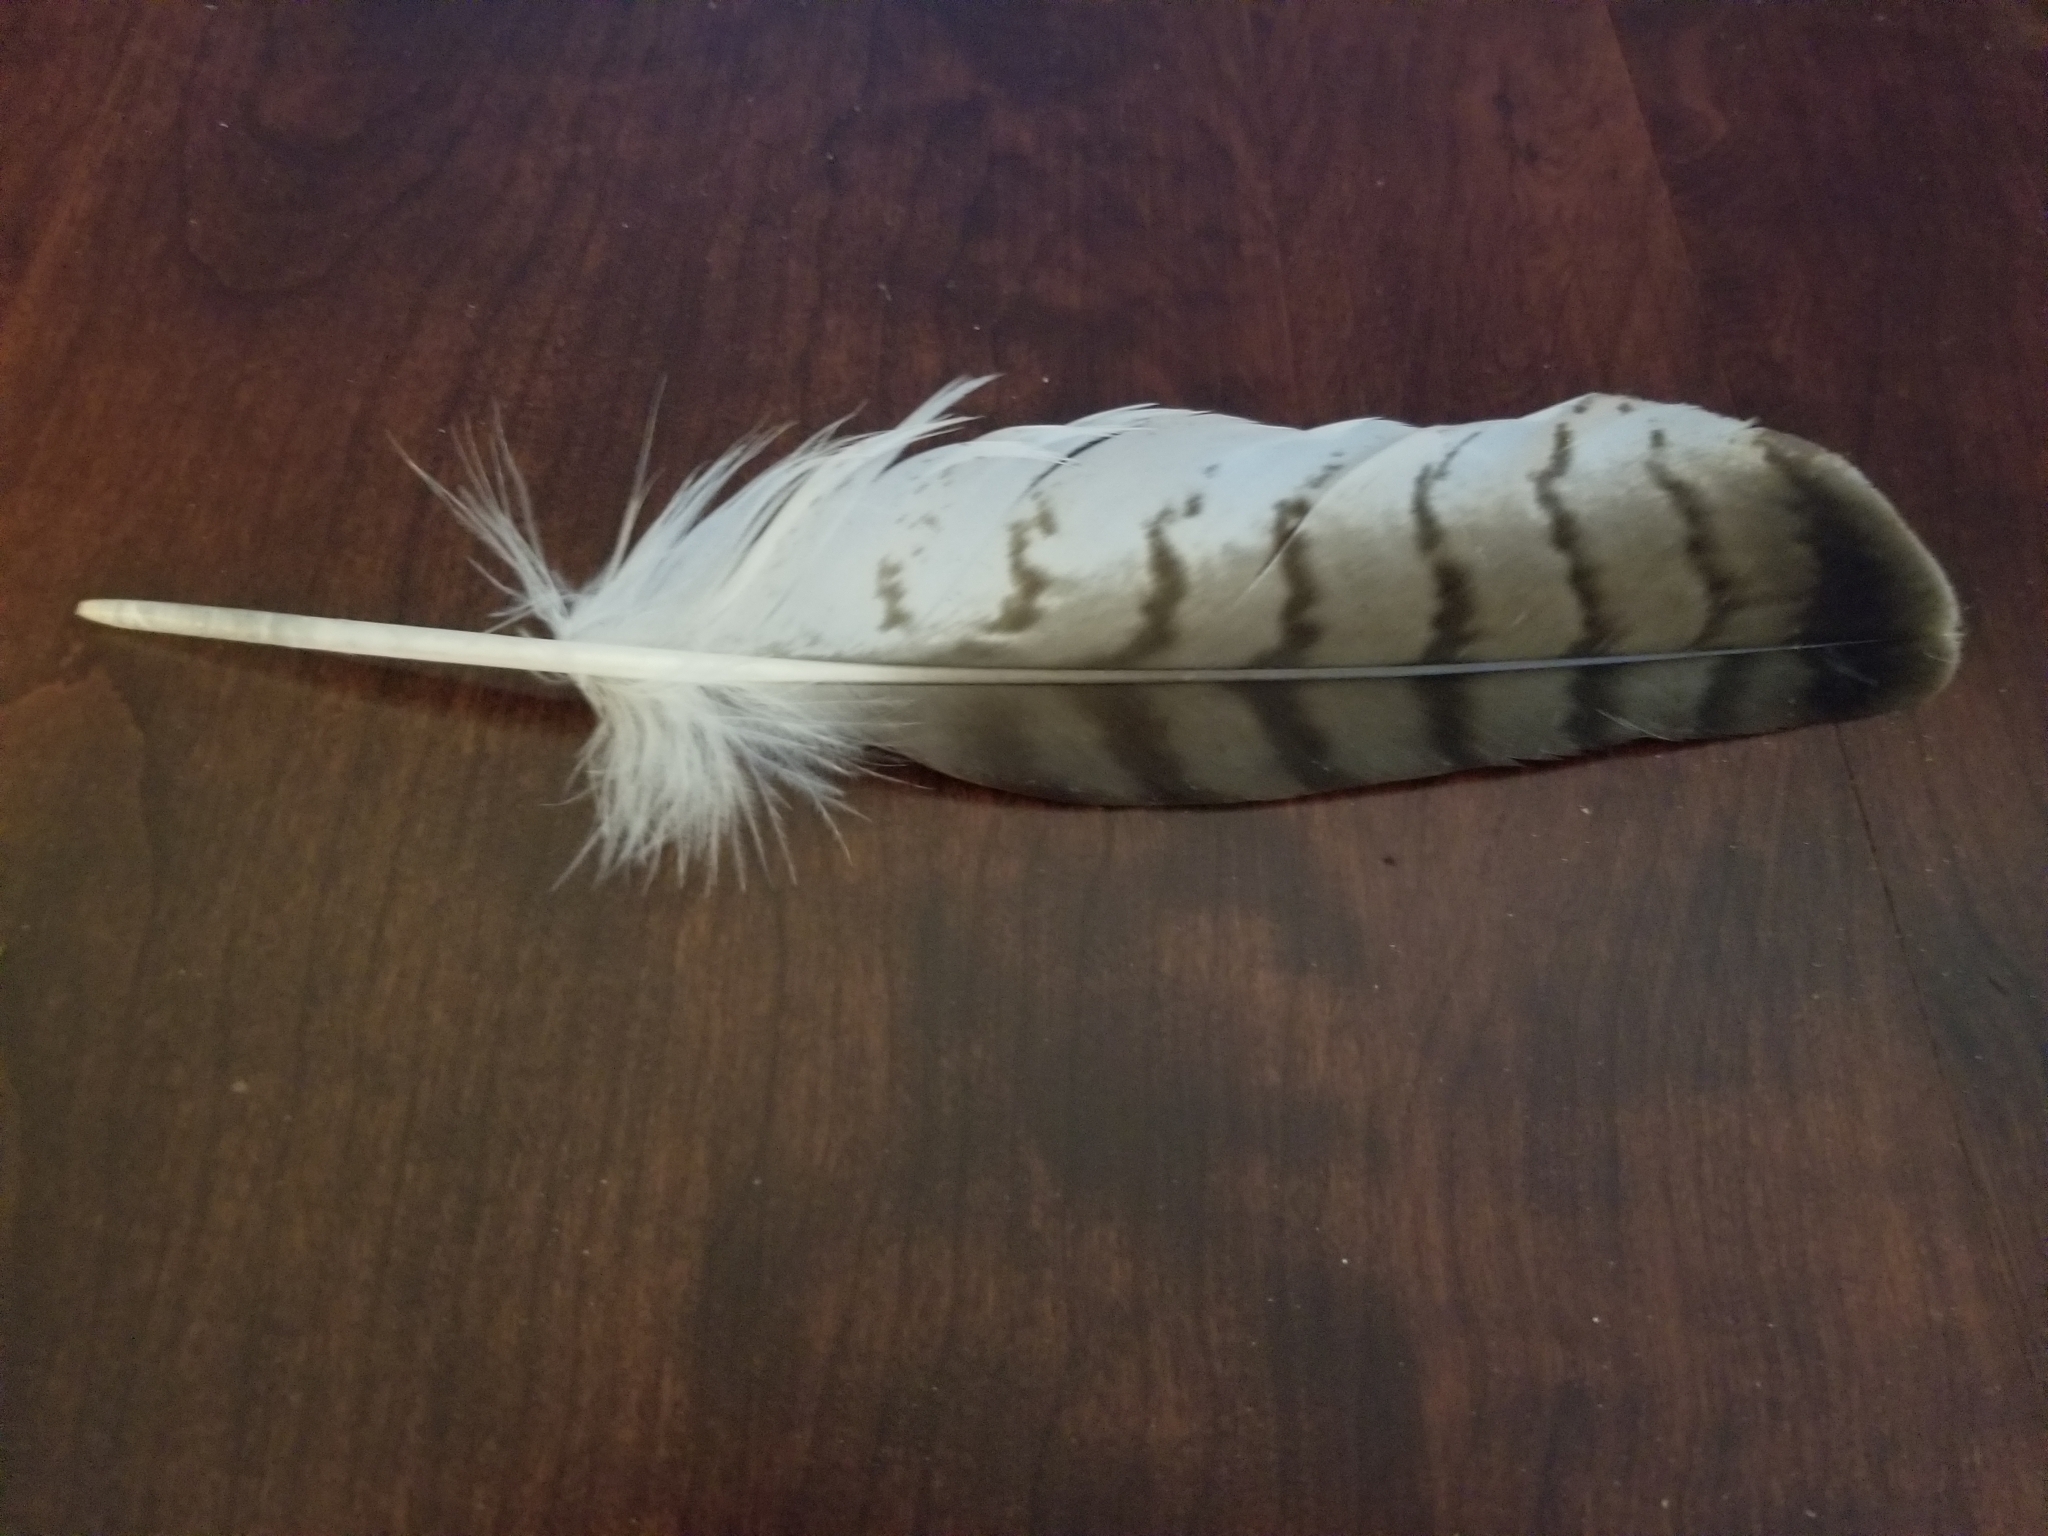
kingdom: Animalia
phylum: Chordata
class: Aves
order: Accipitriformes
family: Accipitridae
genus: Buteo
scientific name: Buteo jamaicensis
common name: Red-tailed hawk
